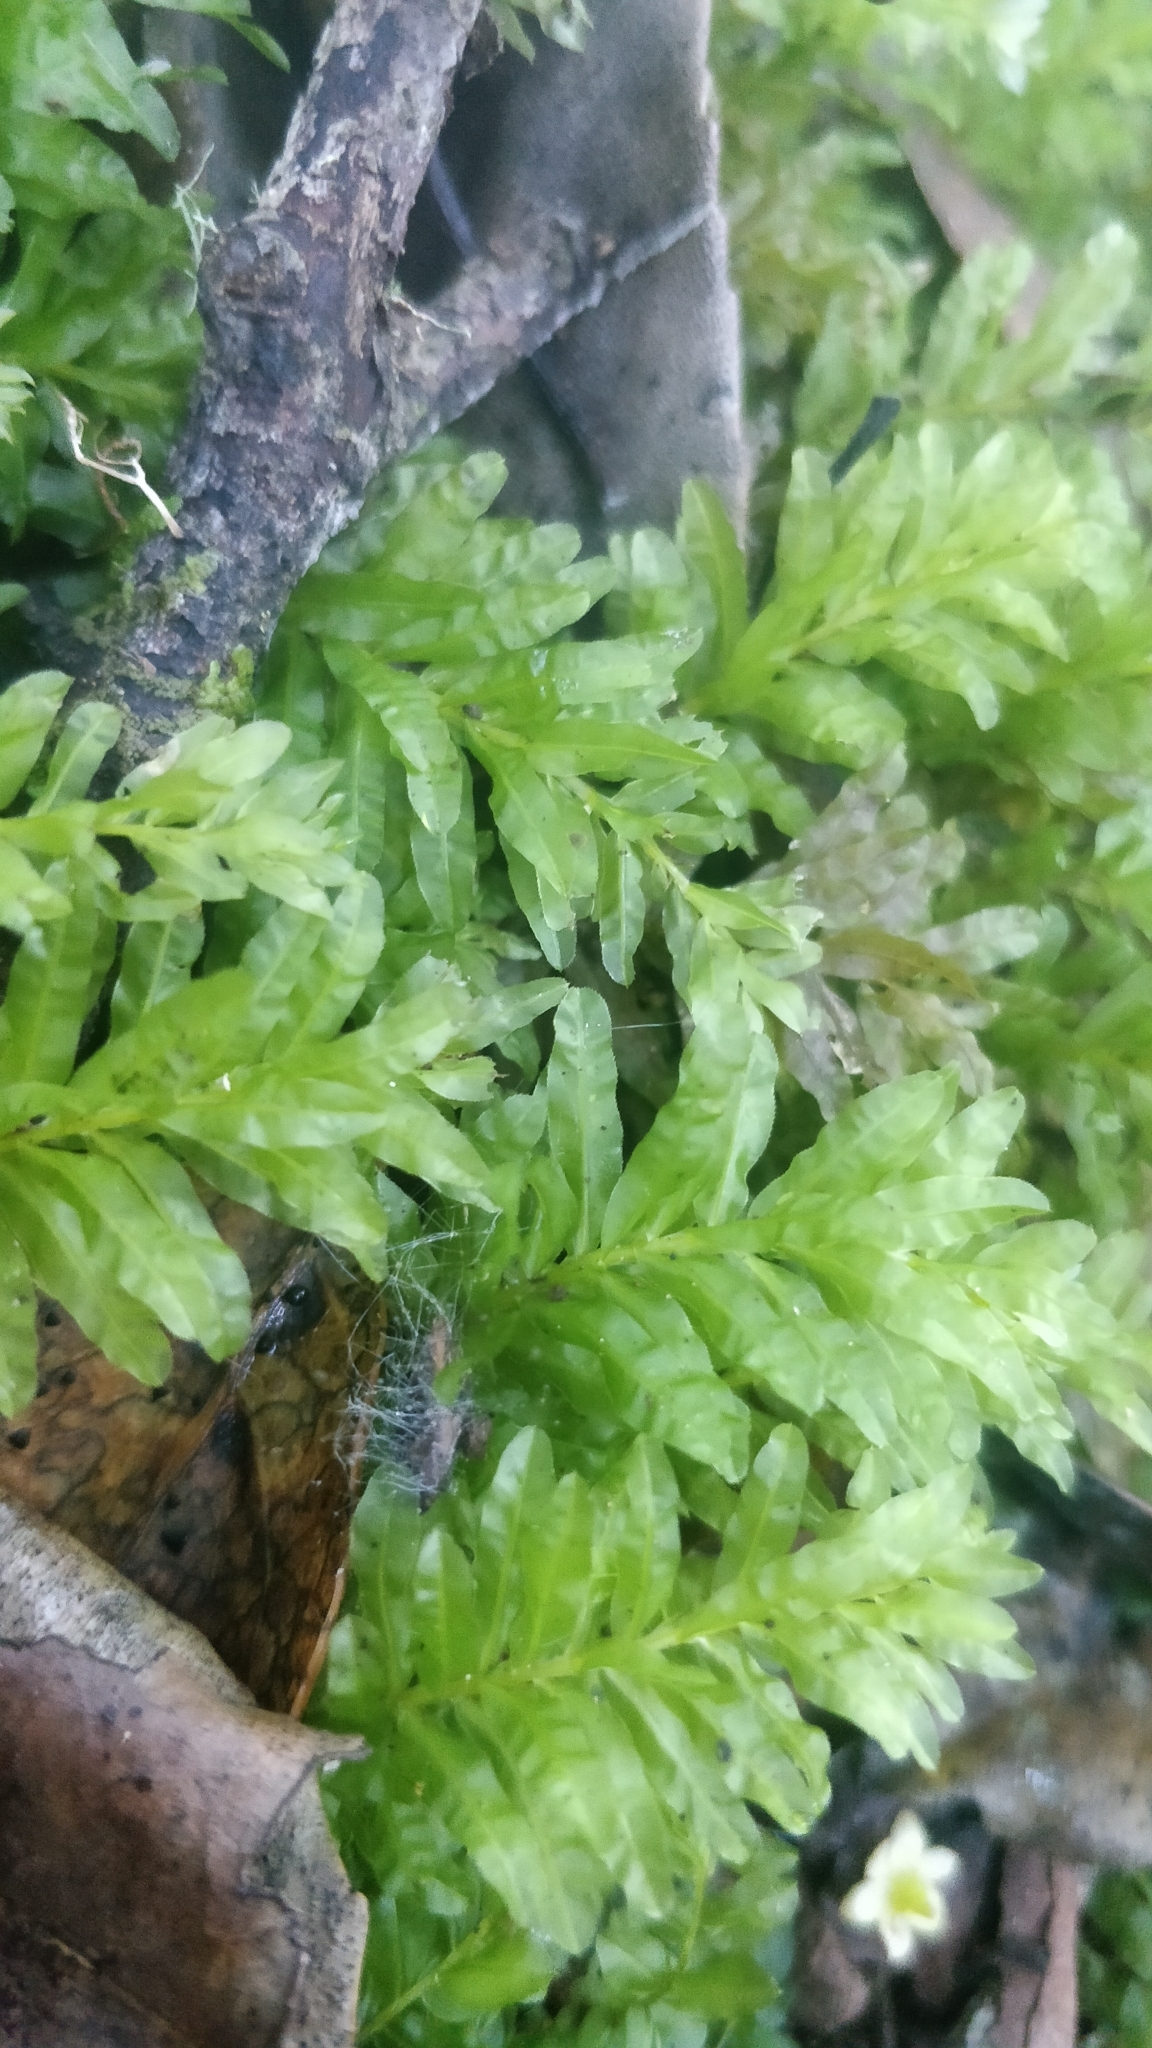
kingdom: Plantae
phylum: Bryophyta
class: Bryopsida
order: Bryales
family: Mniaceae
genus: Plagiomnium
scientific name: Plagiomnium undulatum
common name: Hart's-tongue thyme-moss
